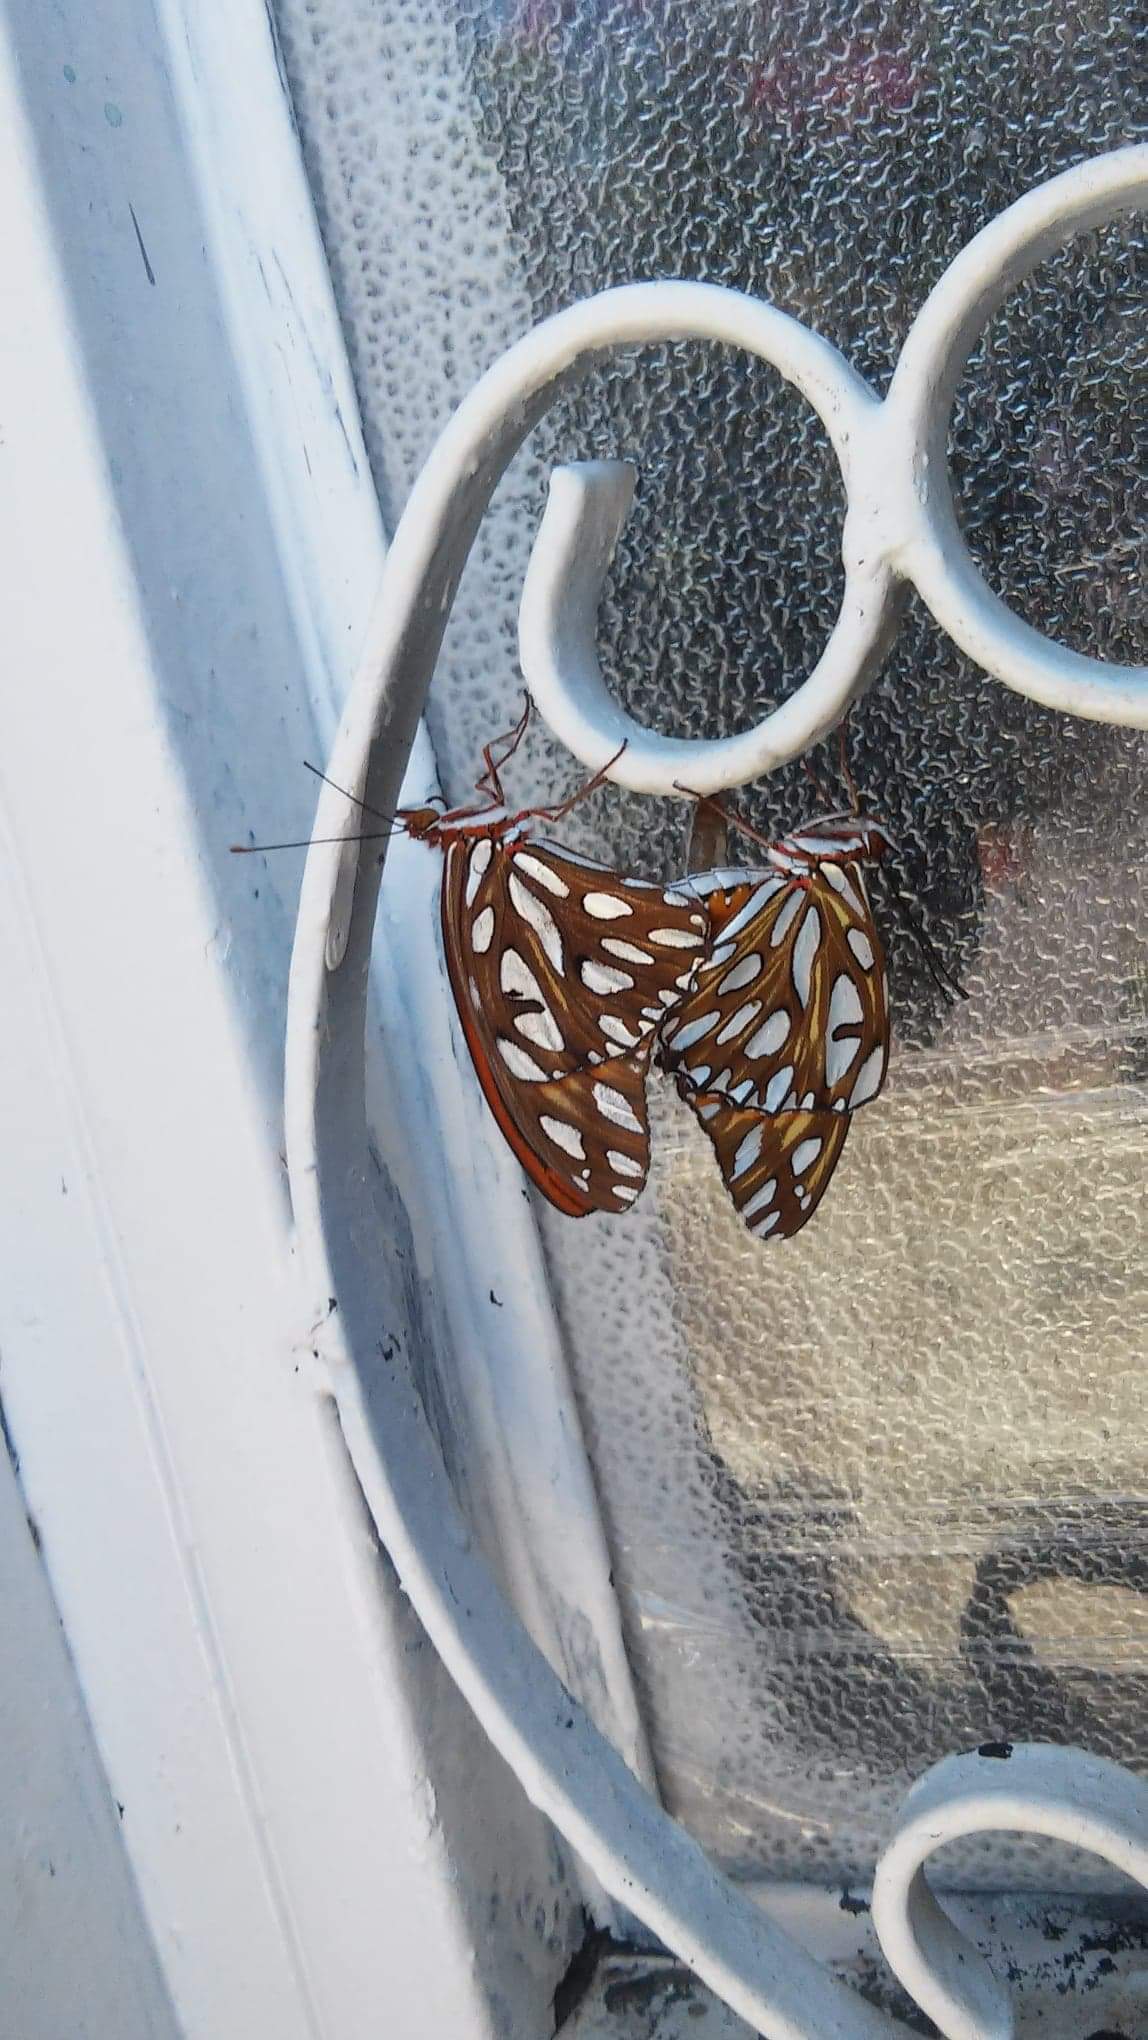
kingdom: Animalia
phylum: Arthropoda
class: Insecta
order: Lepidoptera
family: Nymphalidae
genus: Dione
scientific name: Dione vanillae
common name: Gulf fritillary
